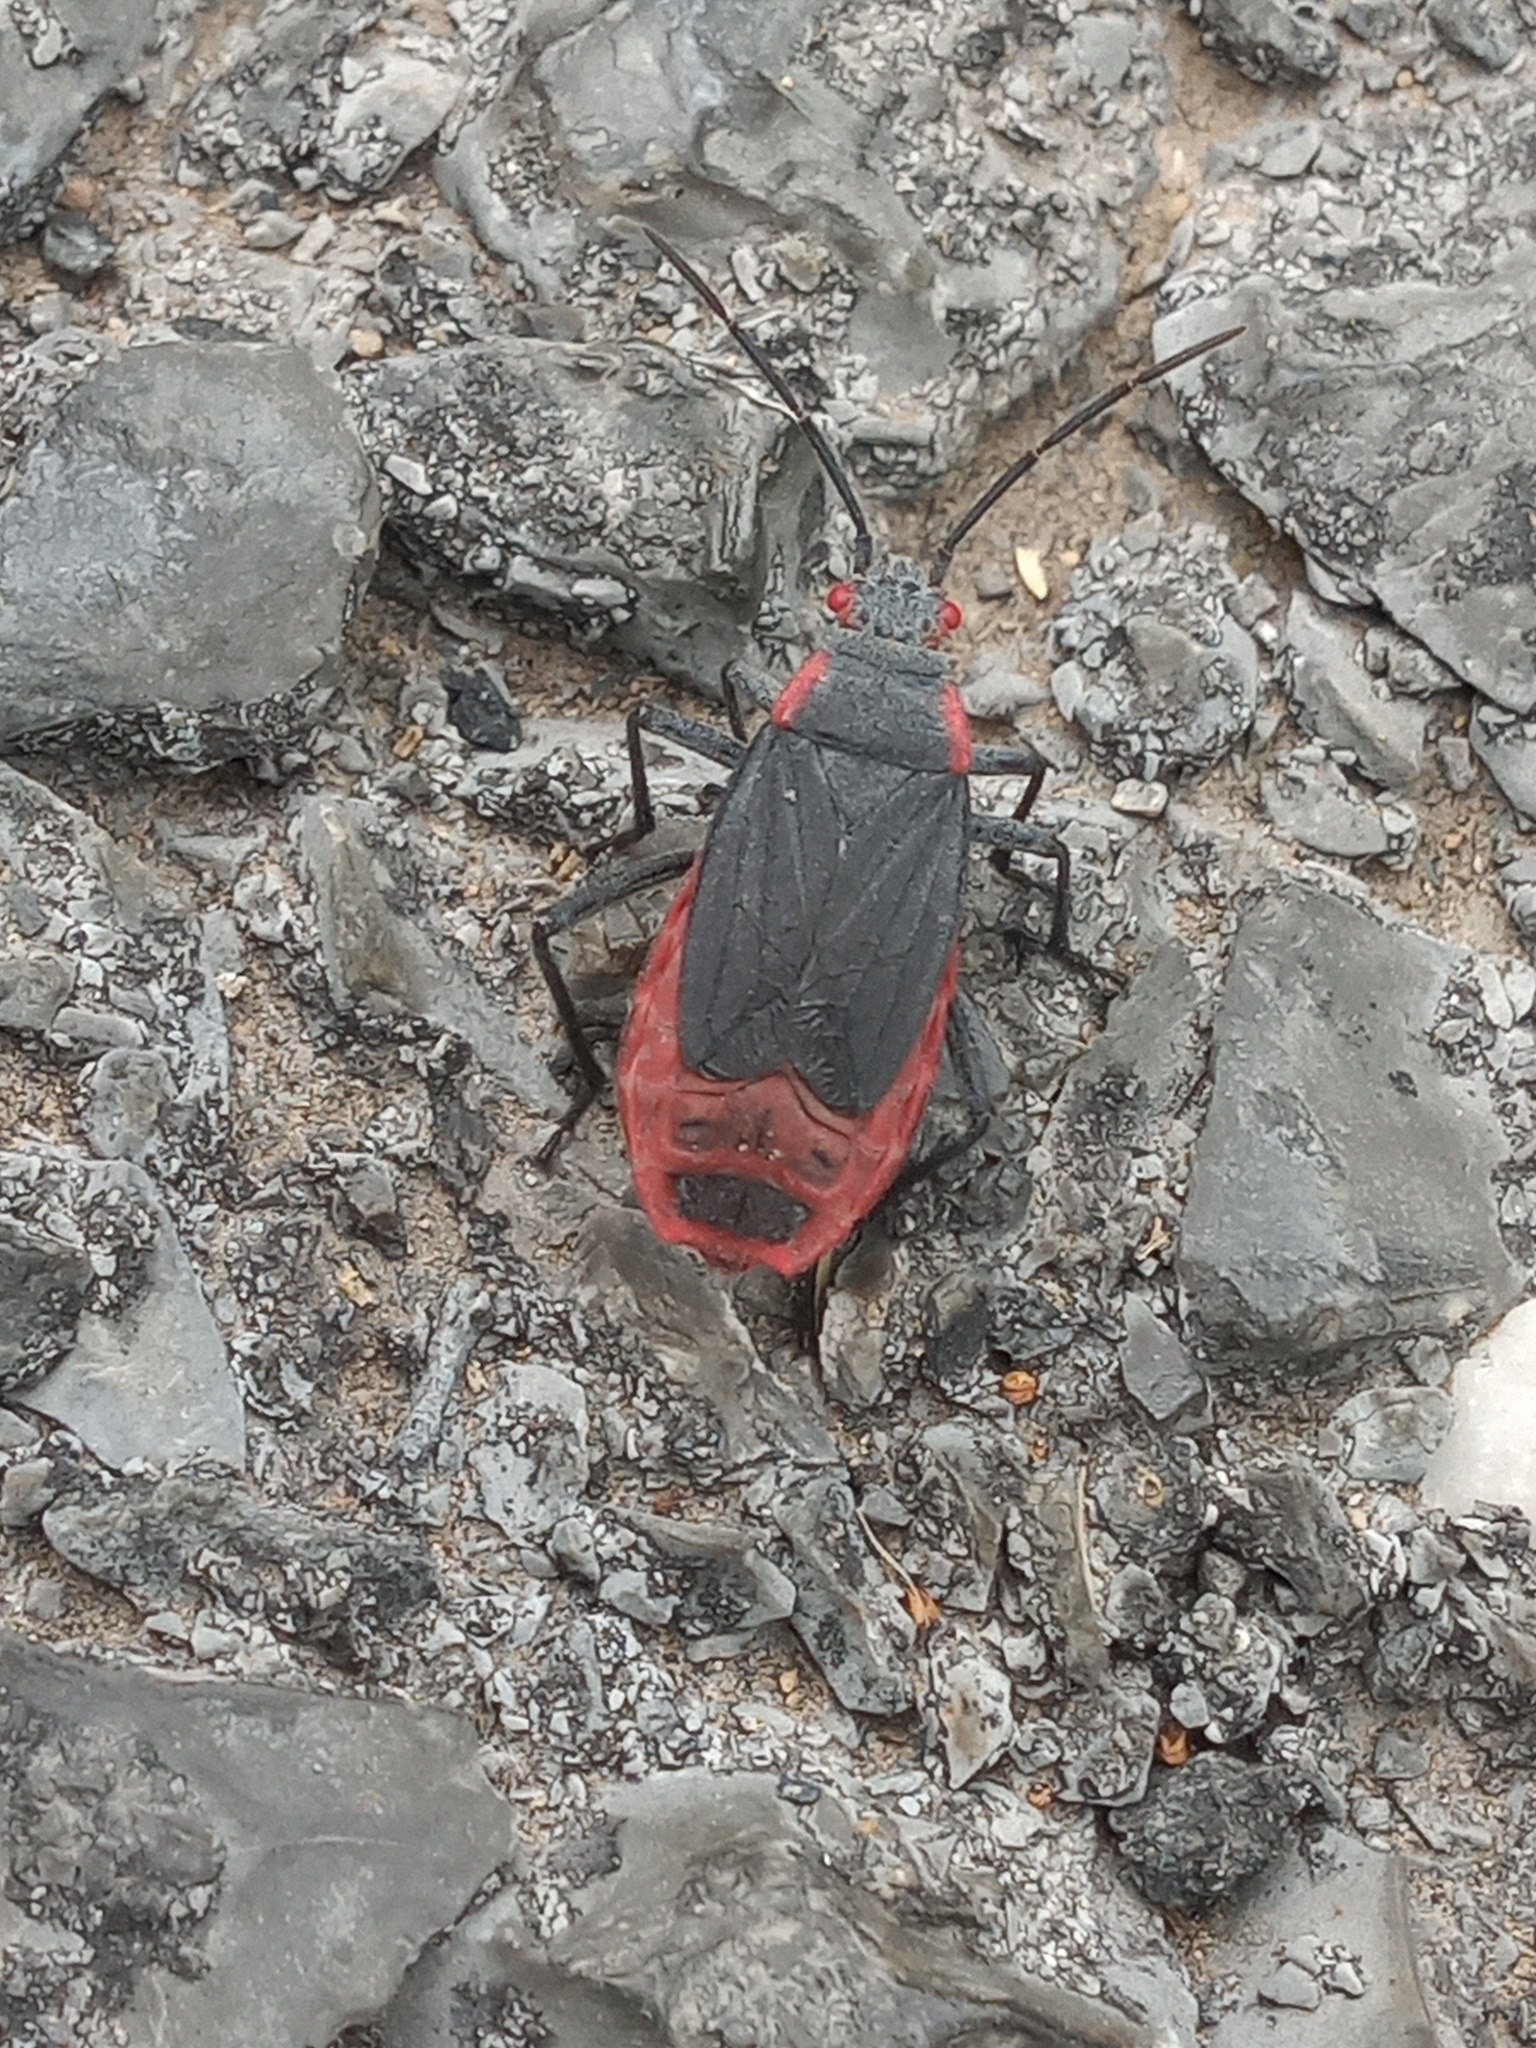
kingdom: Animalia
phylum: Arthropoda
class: Insecta
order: Hemiptera
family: Rhopalidae
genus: Jadera
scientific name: Jadera haematoloma
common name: Red-shouldered bug
